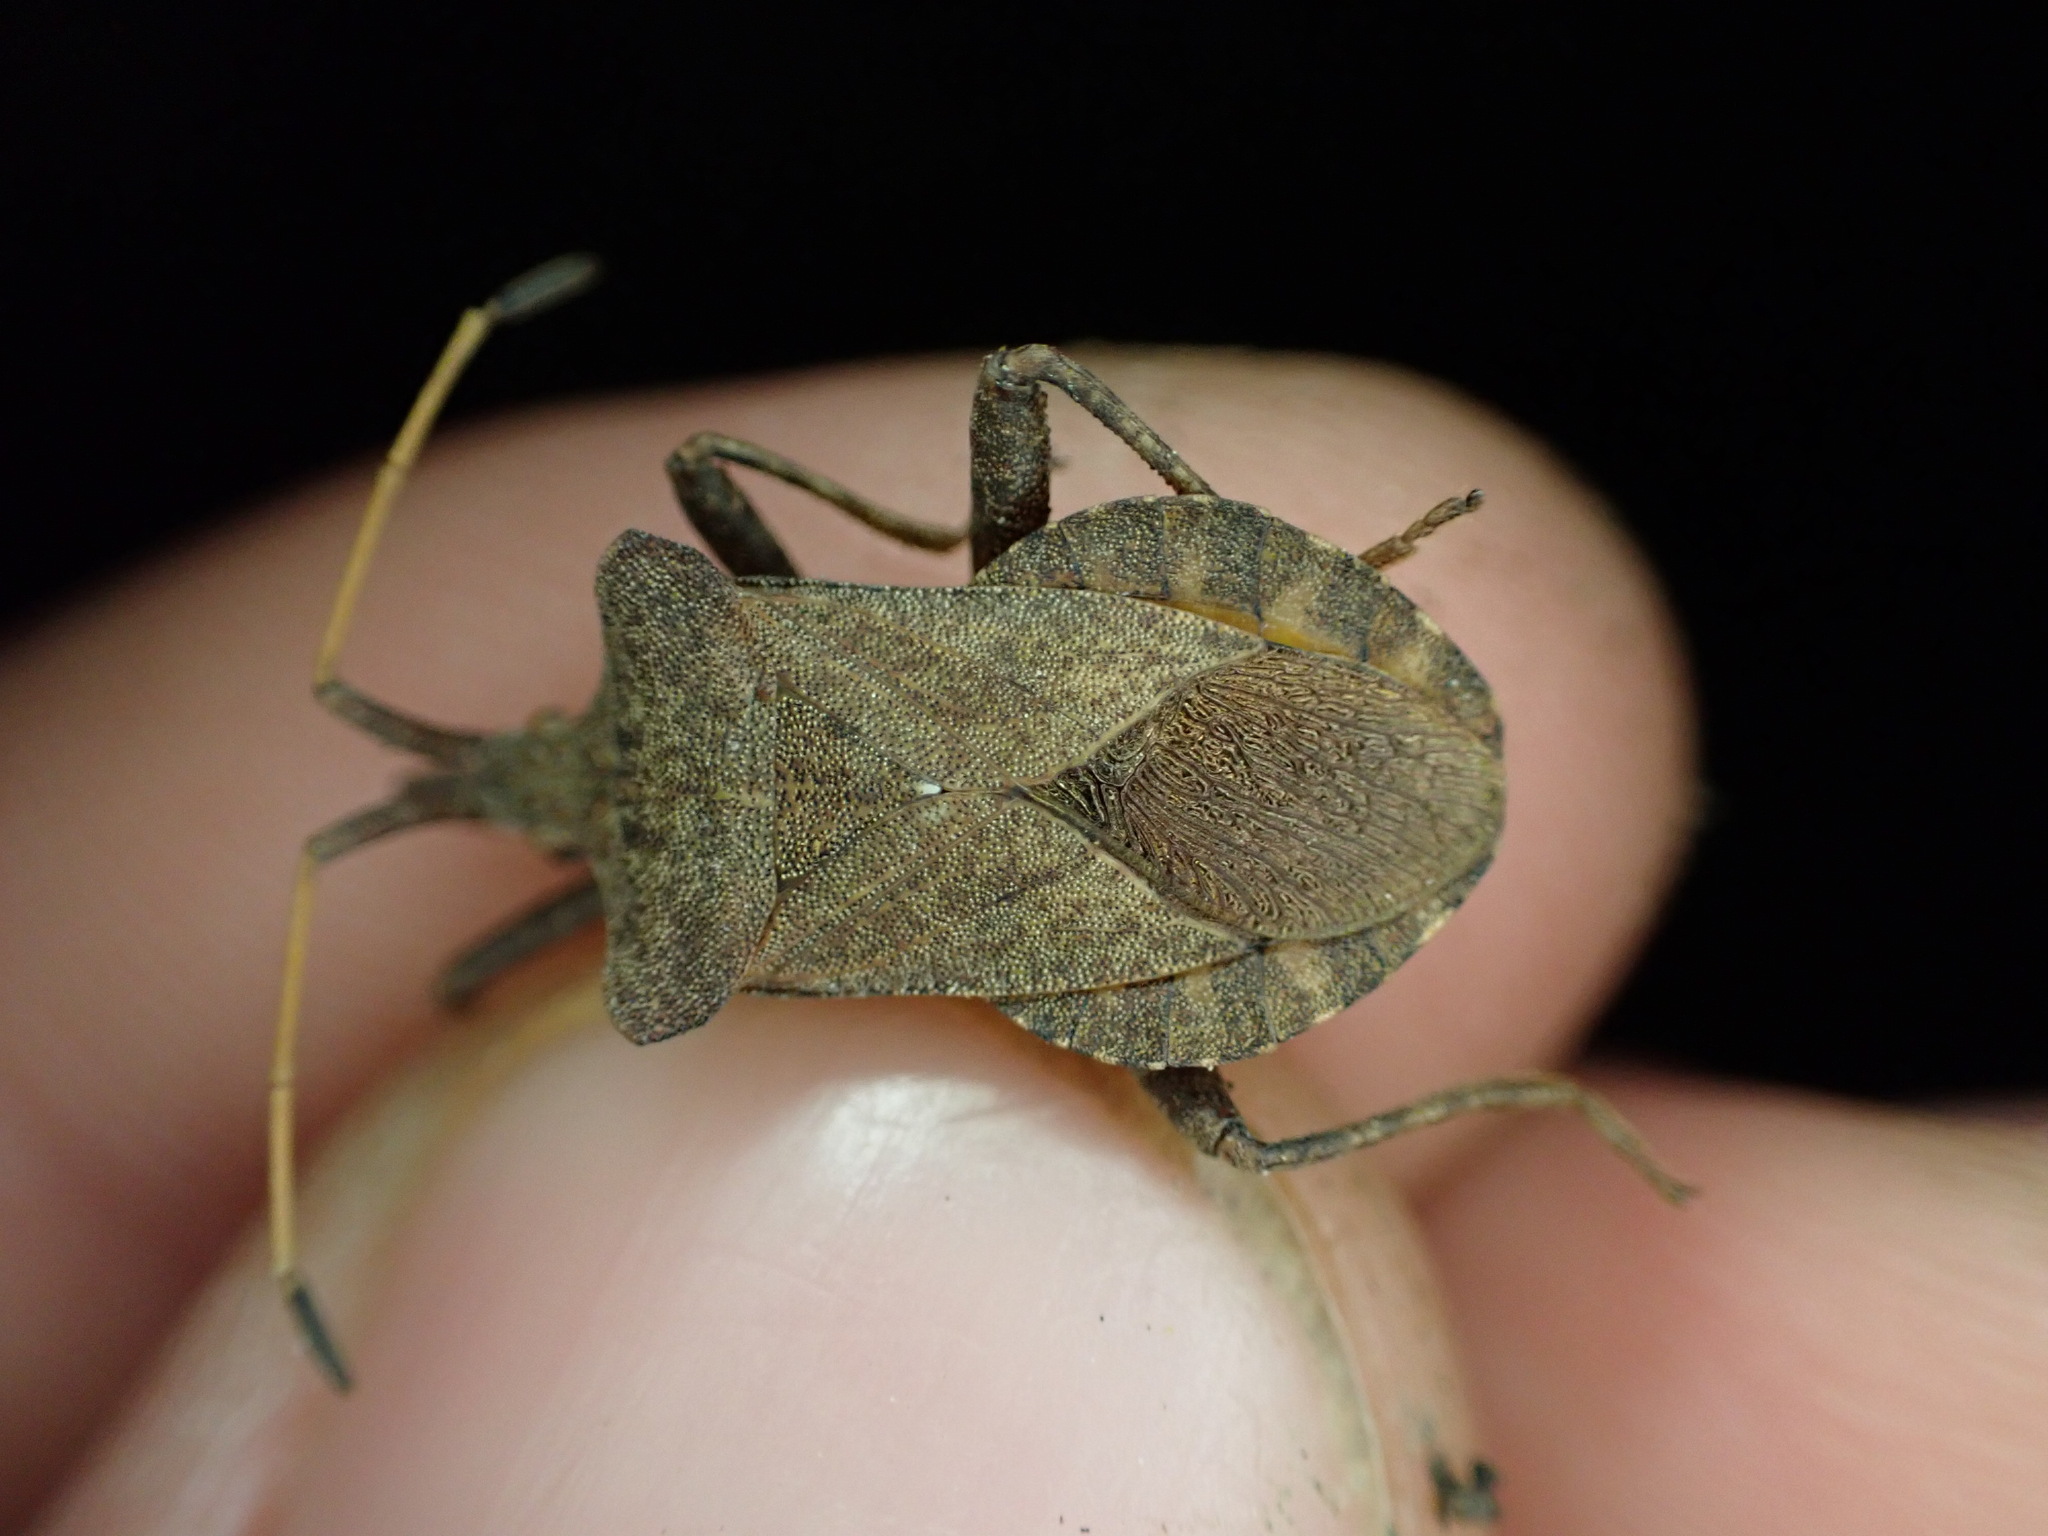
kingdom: Animalia
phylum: Arthropoda
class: Insecta
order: Hemiptera
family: Coreidae
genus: Coreus
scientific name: Coreus marginatus
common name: Dock bug
